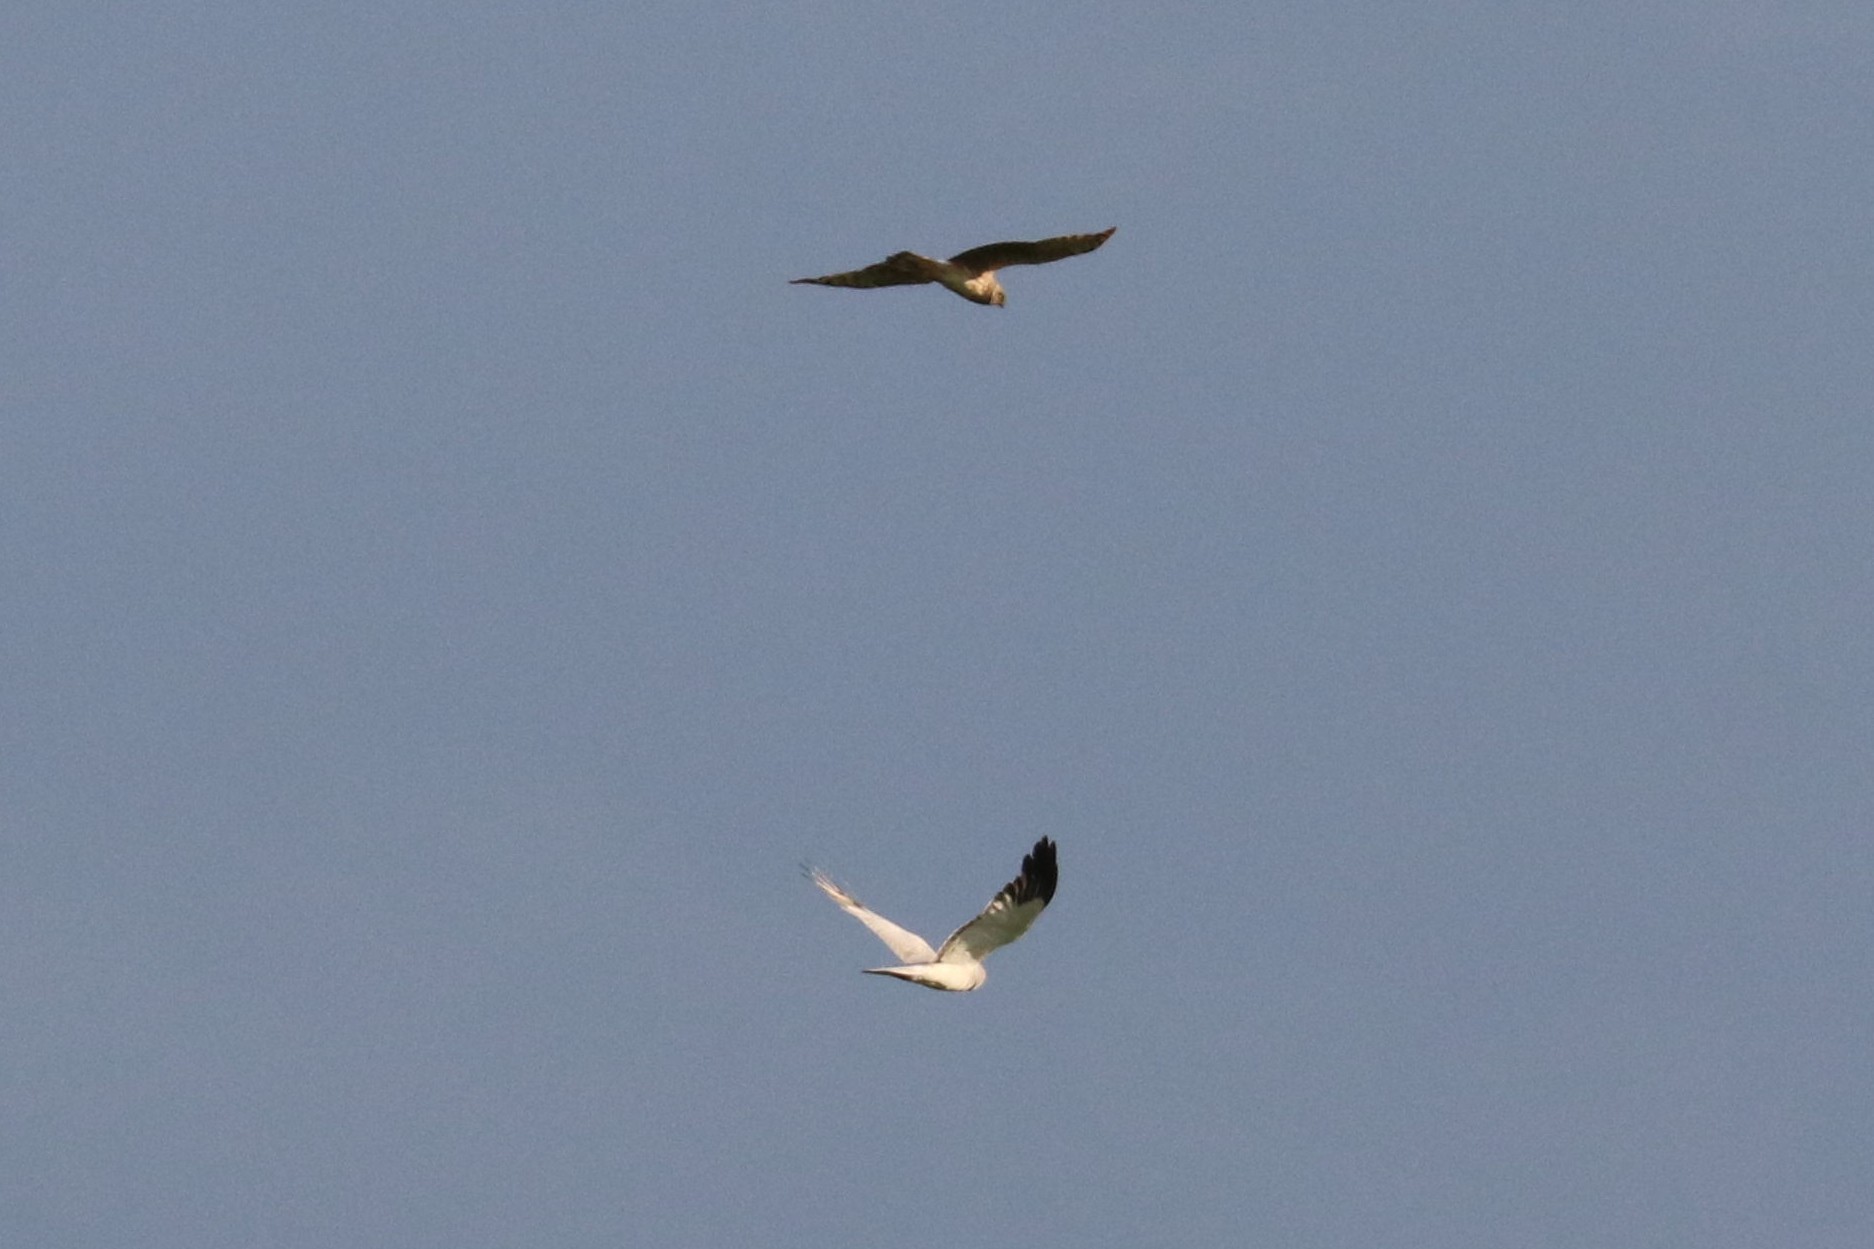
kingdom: Animalia
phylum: Chordata
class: Aves
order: Accipitriformes
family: Accipitridae
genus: Circus
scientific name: Circus cyaneus
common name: Hen harrier
